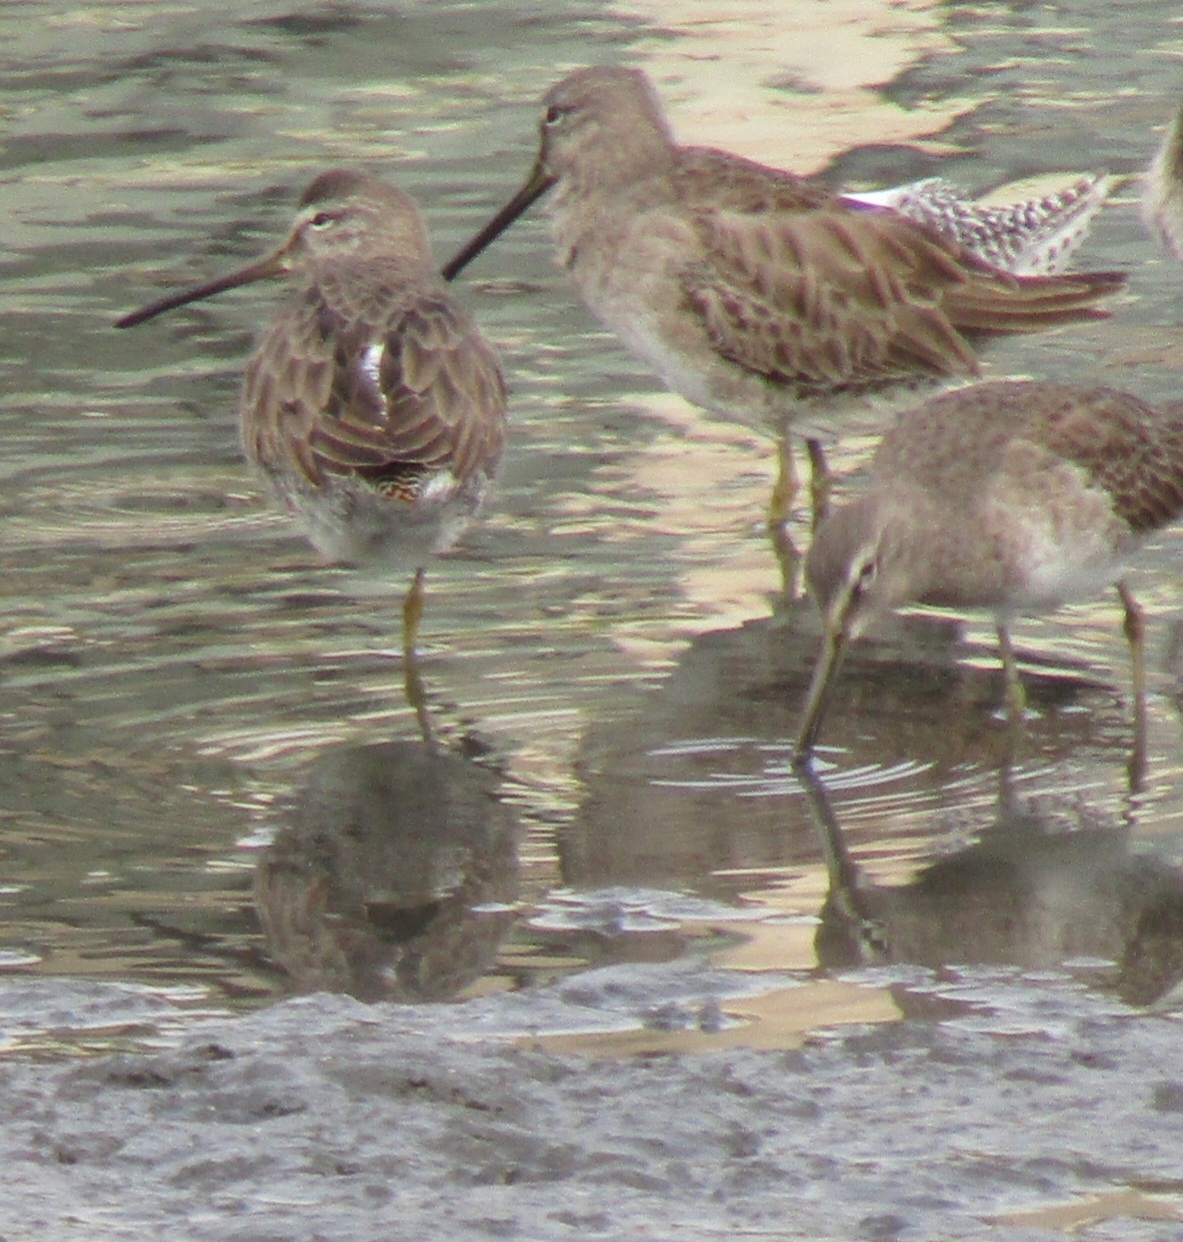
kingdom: Animalia
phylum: Chordata
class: Aves
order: Charadriiformes
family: Scolopacidae
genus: Limnodromus
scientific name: Limnodromus scolopaceus
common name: Long-billed dowitcher
